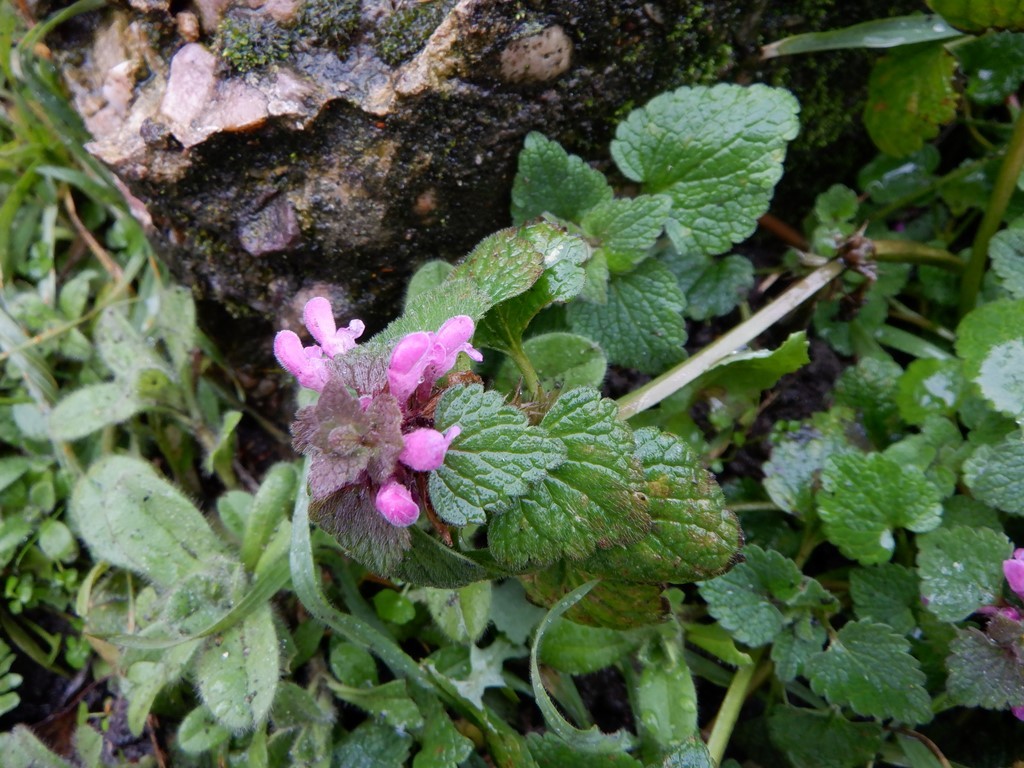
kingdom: Plantae
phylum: Tracheophyta
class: Magnoliopsida
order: Lamiales
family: Lamiaceae
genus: Lamium
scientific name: Lamium purpureum
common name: Red dead-nettle
